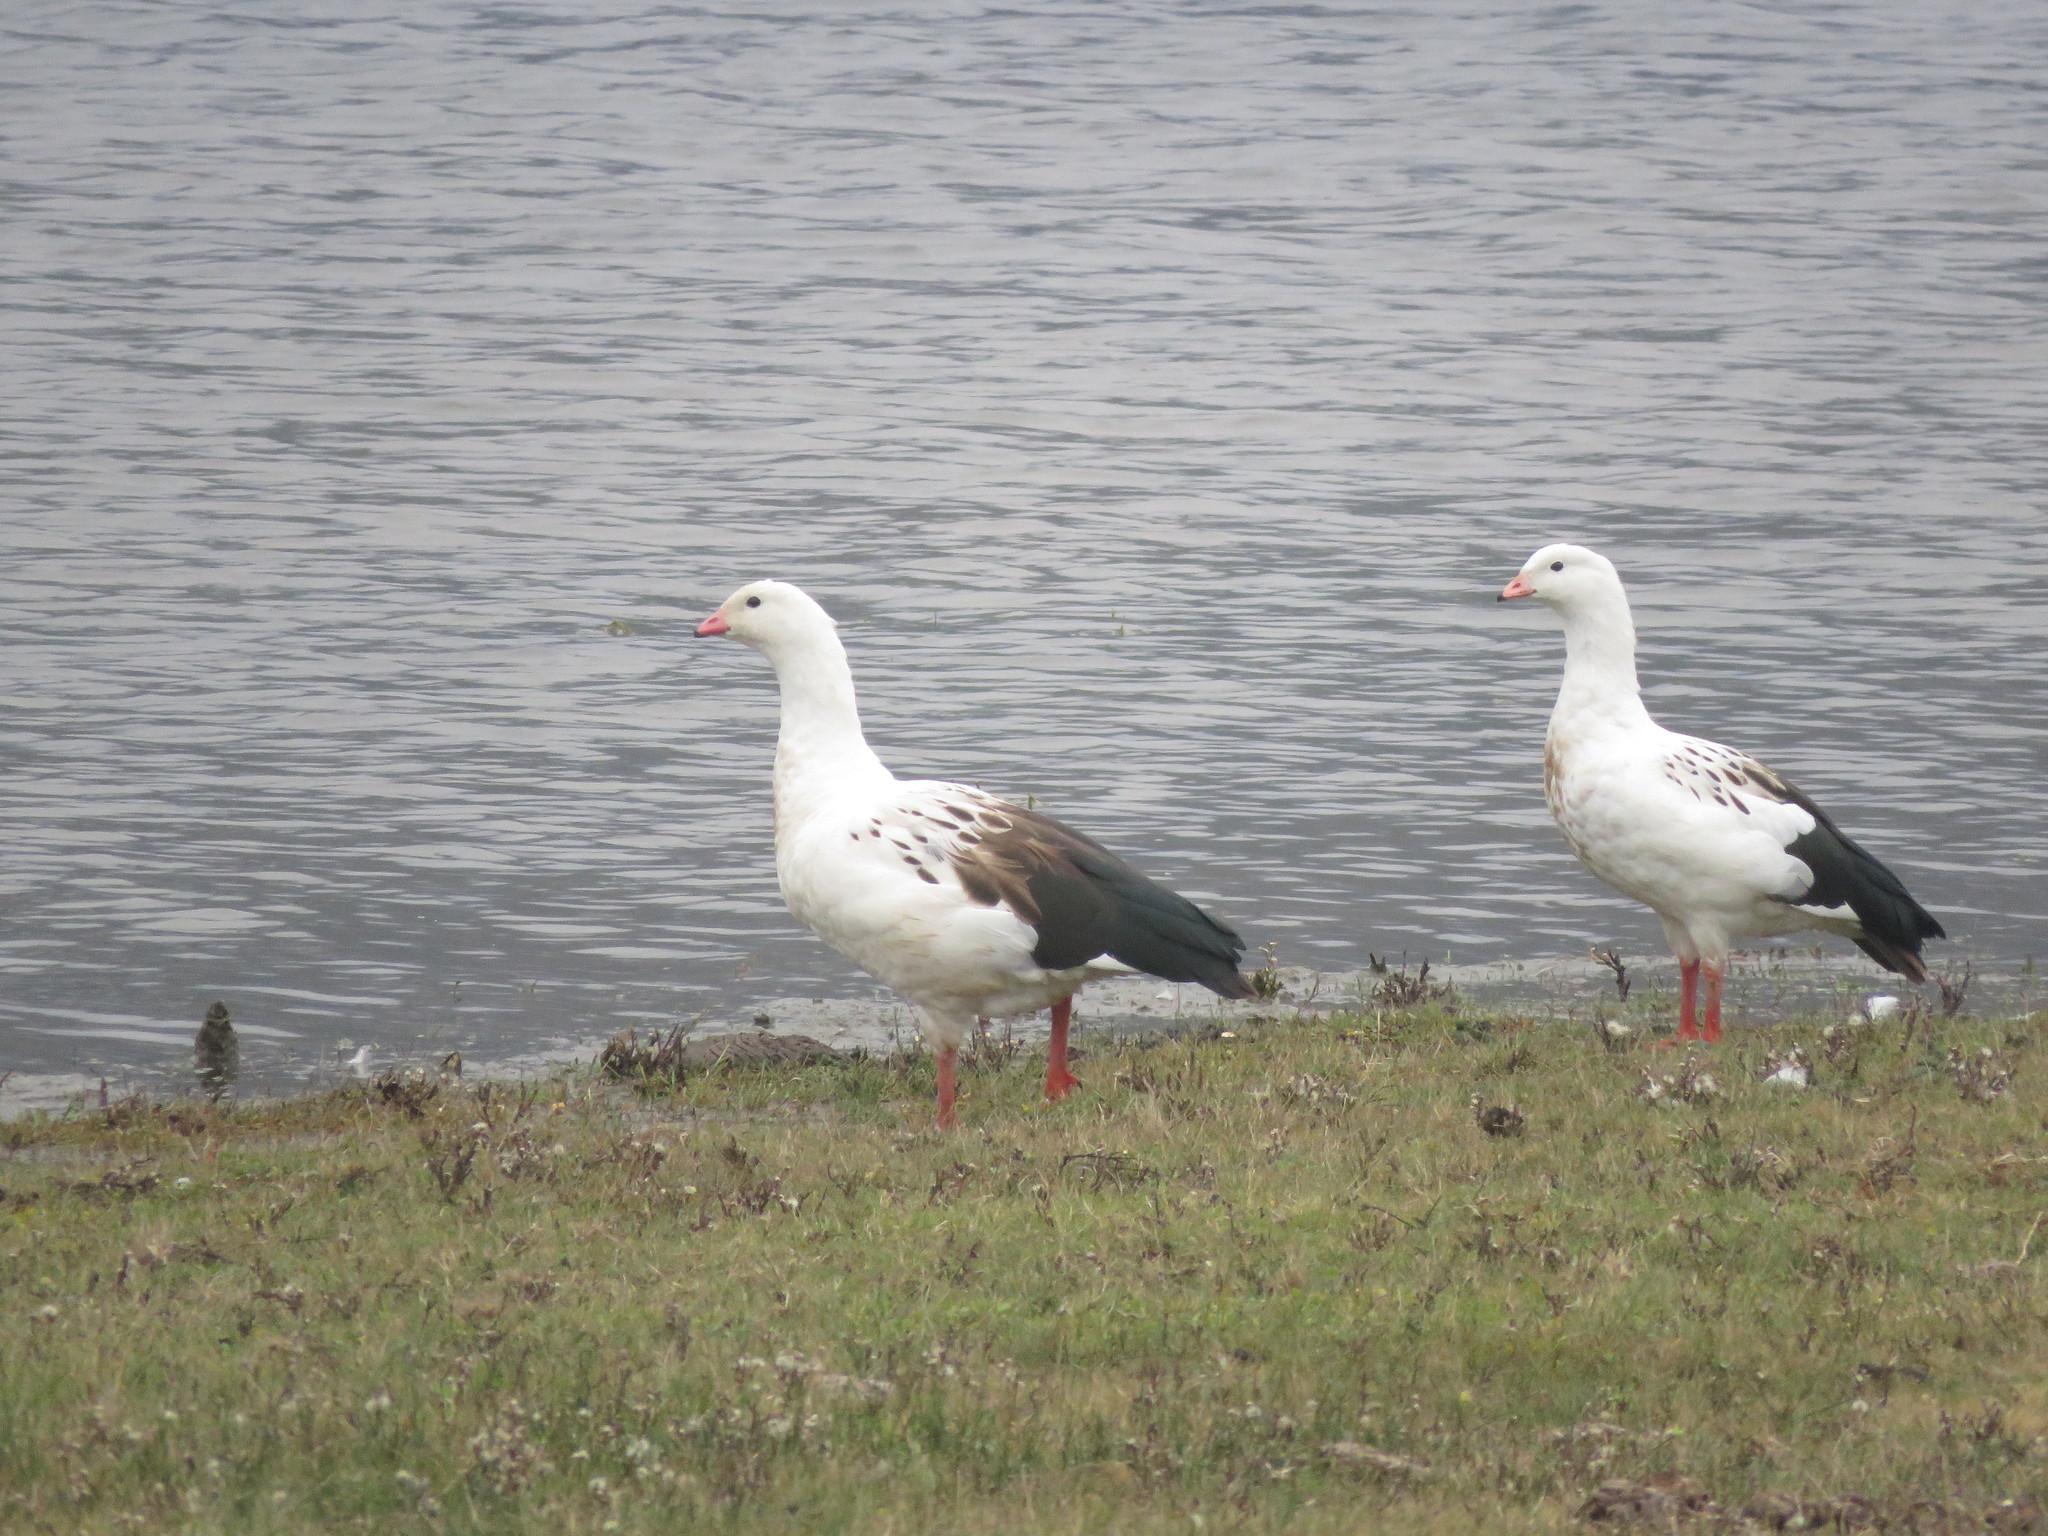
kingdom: Animalia
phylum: Chordata
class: Aves
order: Anseriformes
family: Anatidae
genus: Chloephaga
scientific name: Chloephaga melanoptera
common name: Andean goose
